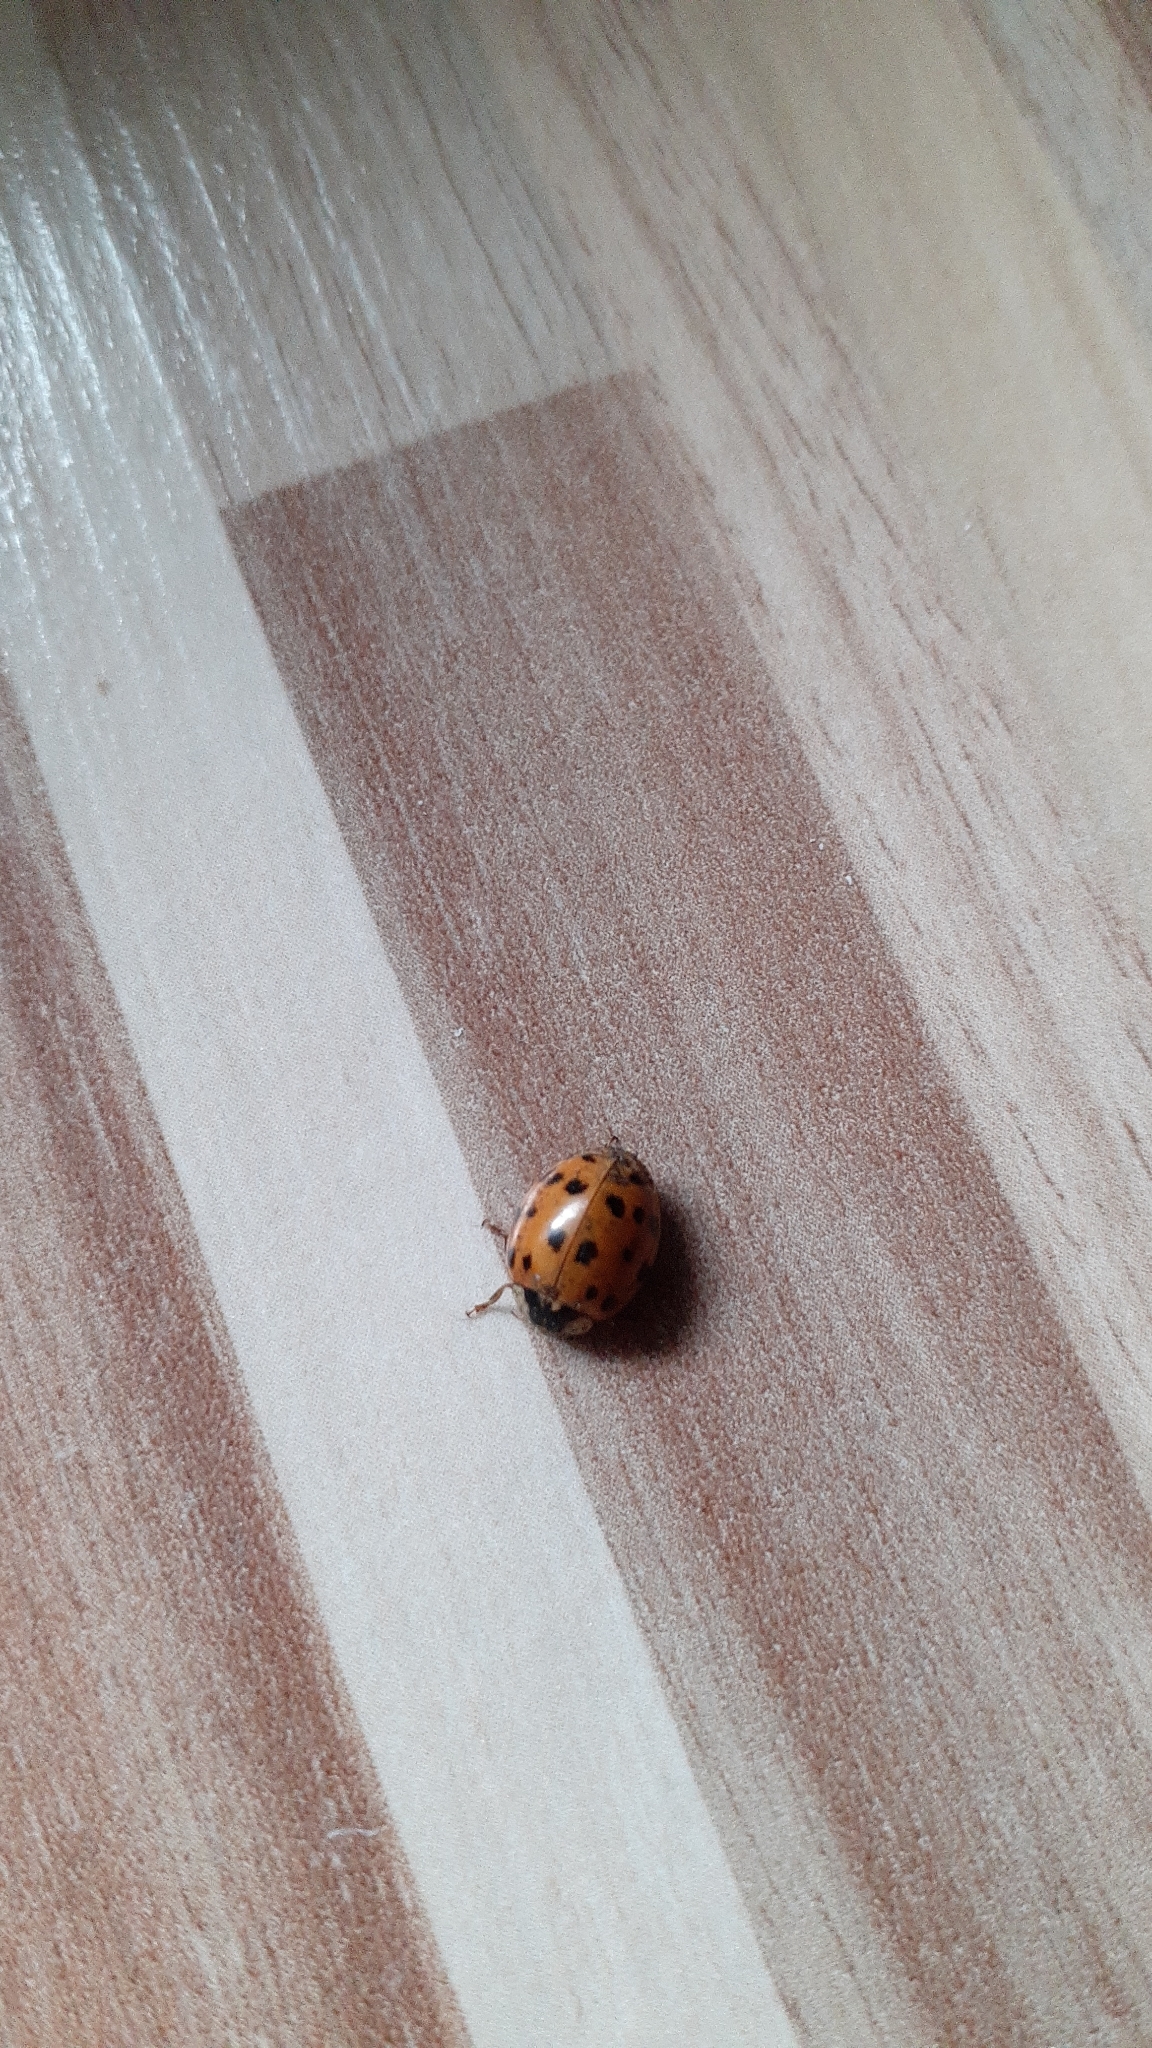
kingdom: Animalia
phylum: Arthropoda
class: Insecta
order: Coleoptera
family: Coccinellidae
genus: Harmonia
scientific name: Harmonia axyridis
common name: Harlequin ladybird
